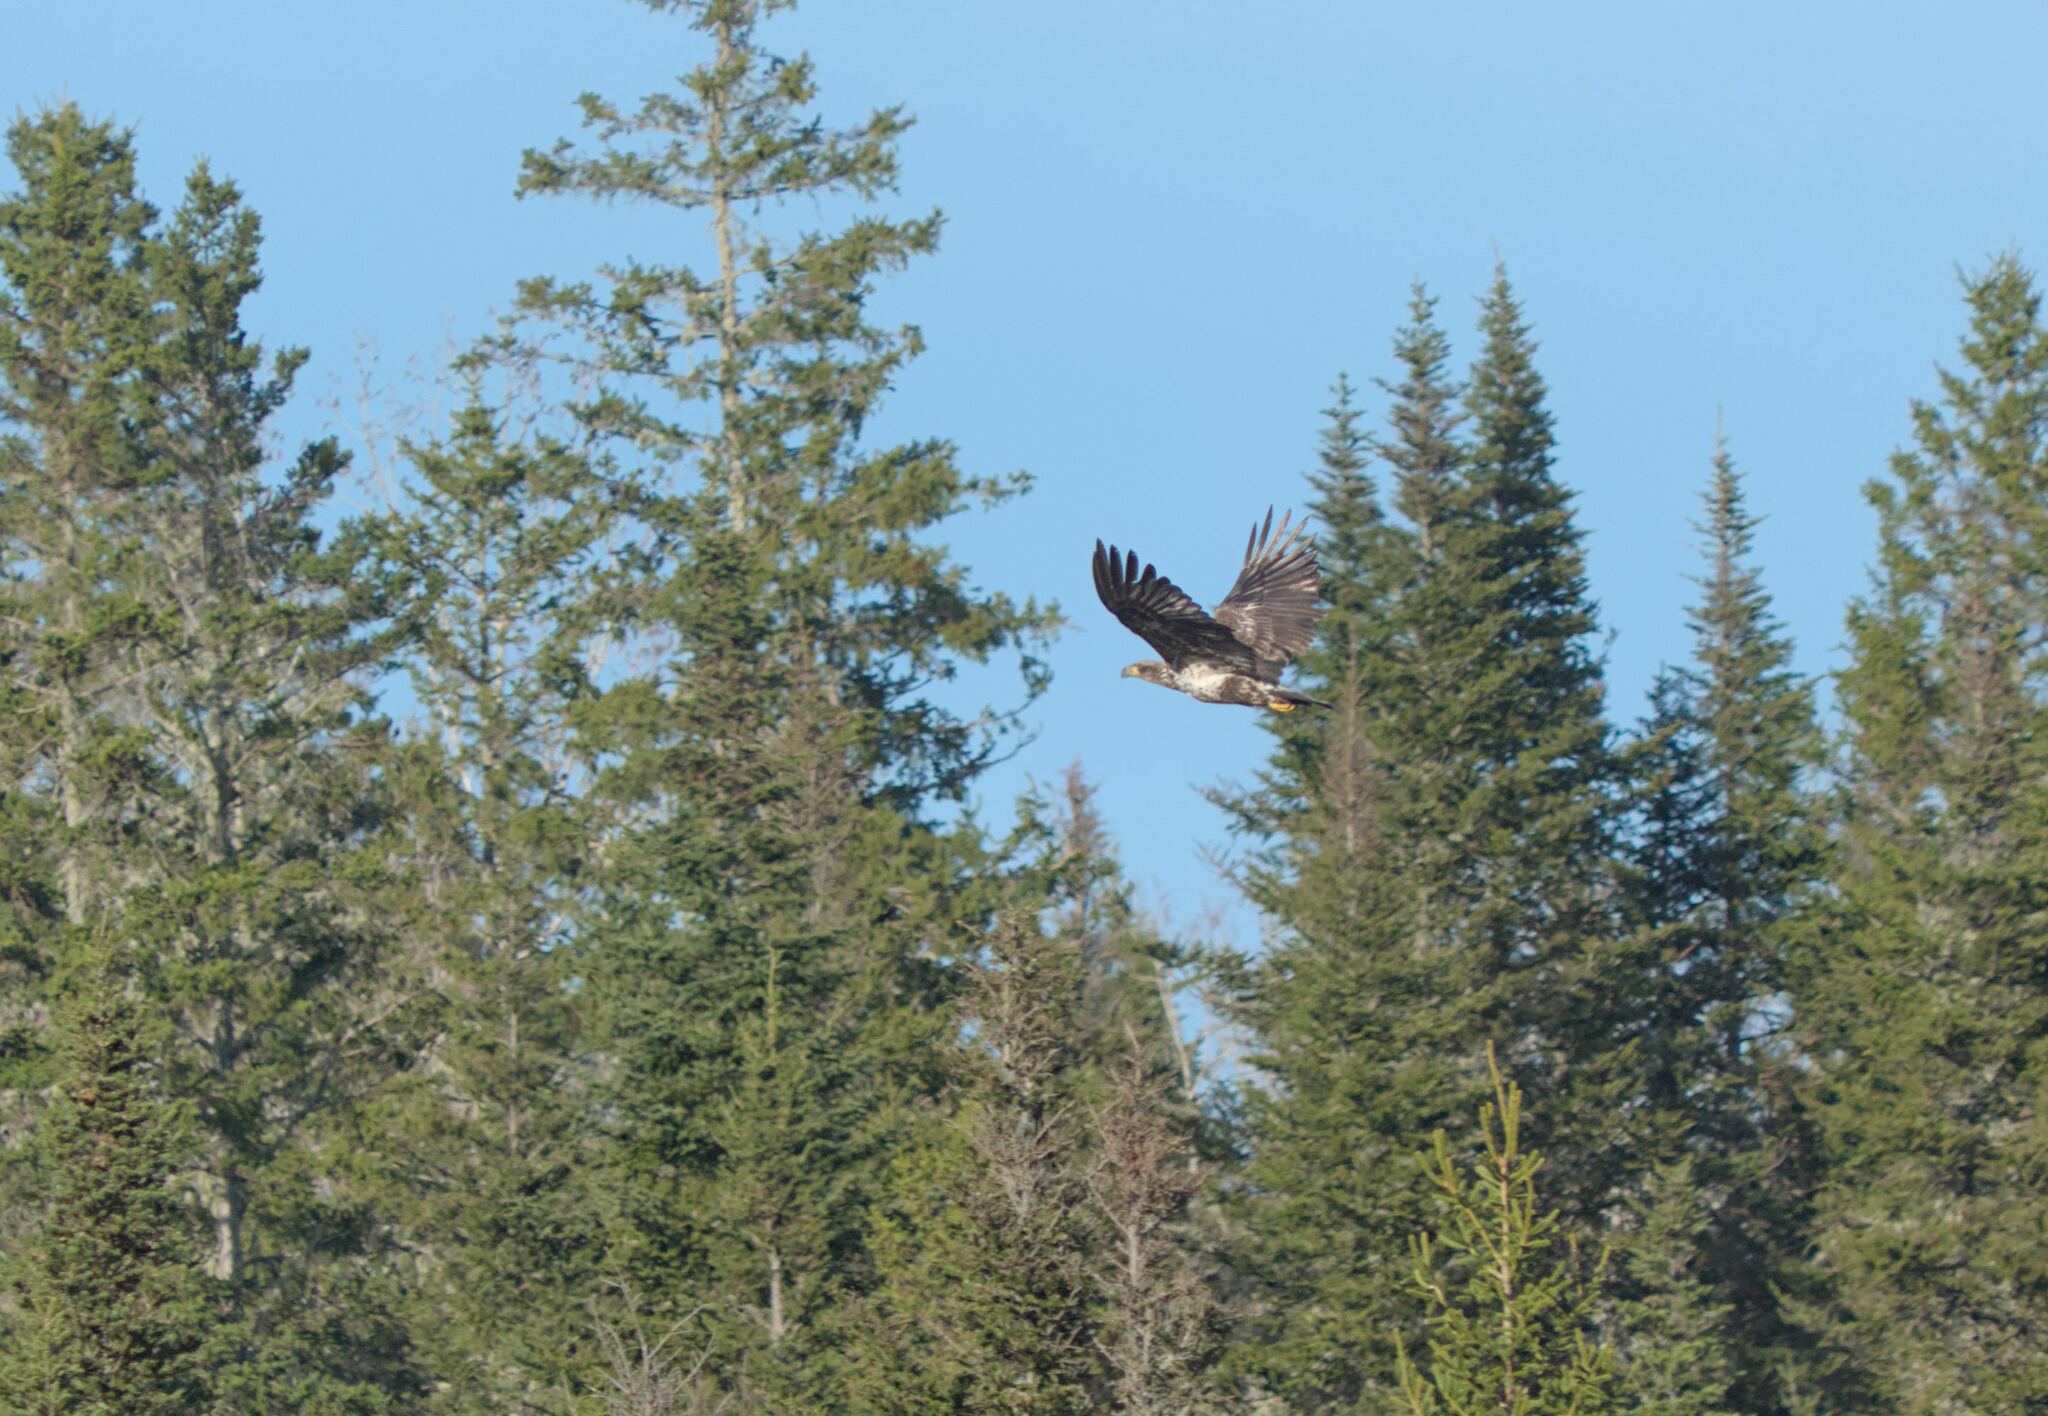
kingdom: Animalia
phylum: Chordata
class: Aves
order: Accipitriformes
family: Accipitridae
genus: Haliaeetus
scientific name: Haliaeetus leucocephalus
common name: Bald eagle
